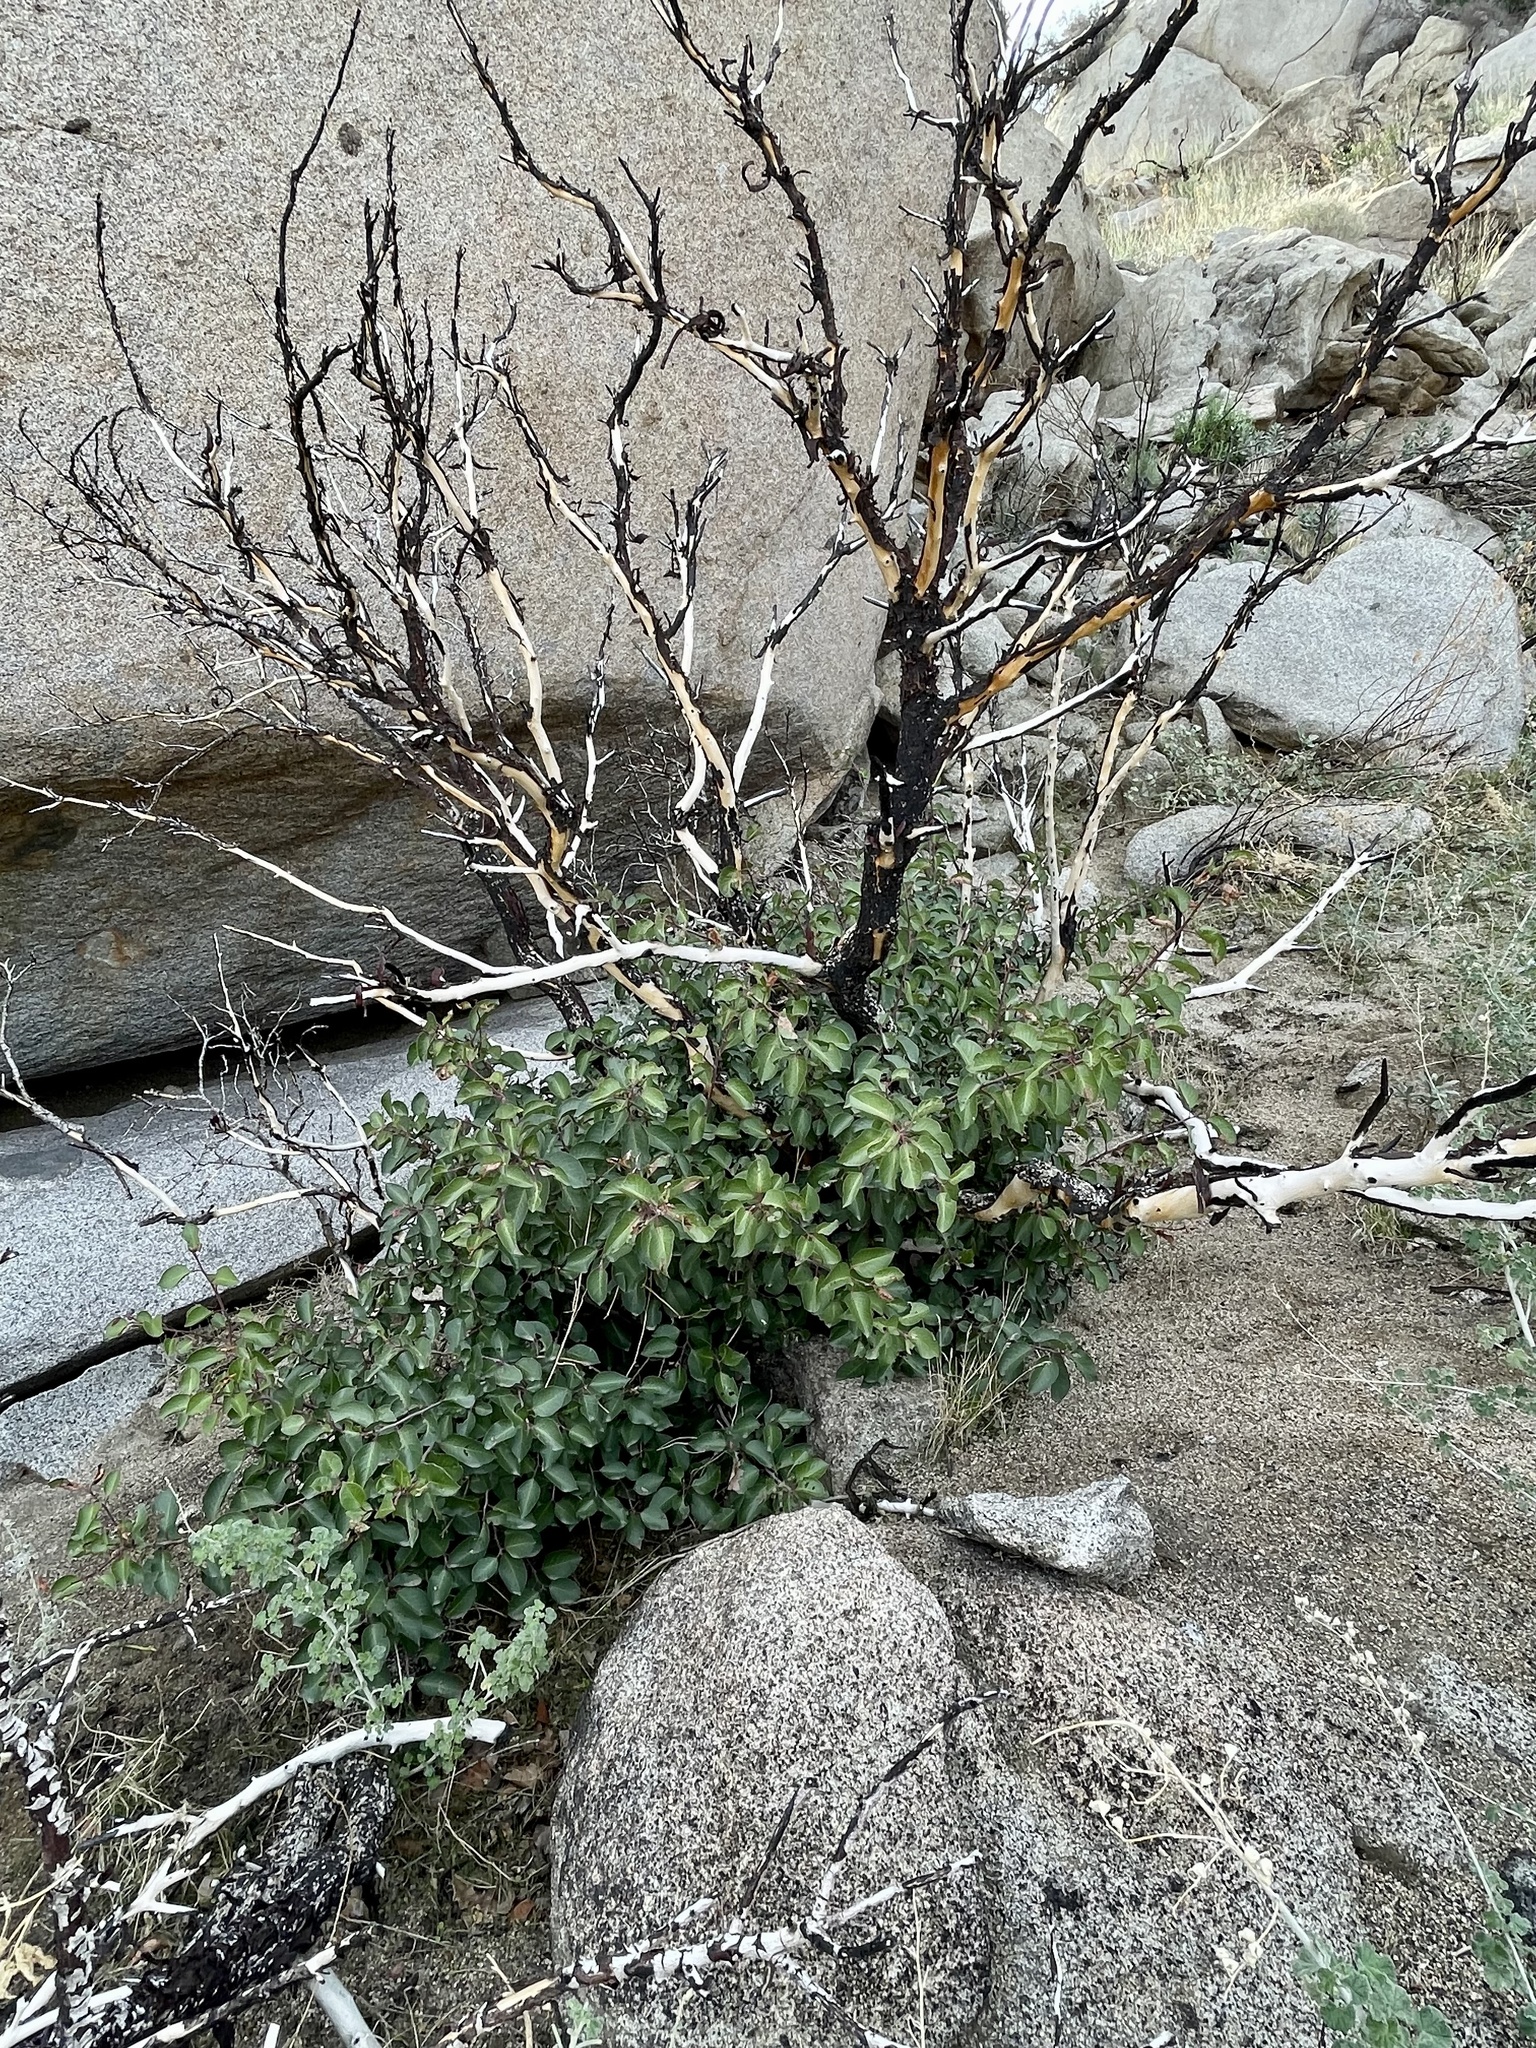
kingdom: Plantae
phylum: Tracheophyta
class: Magnoliopsida
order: Sapindales
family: Anacardiaceae
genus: Rhus
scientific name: Rhus ovata
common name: Sugar sumac
